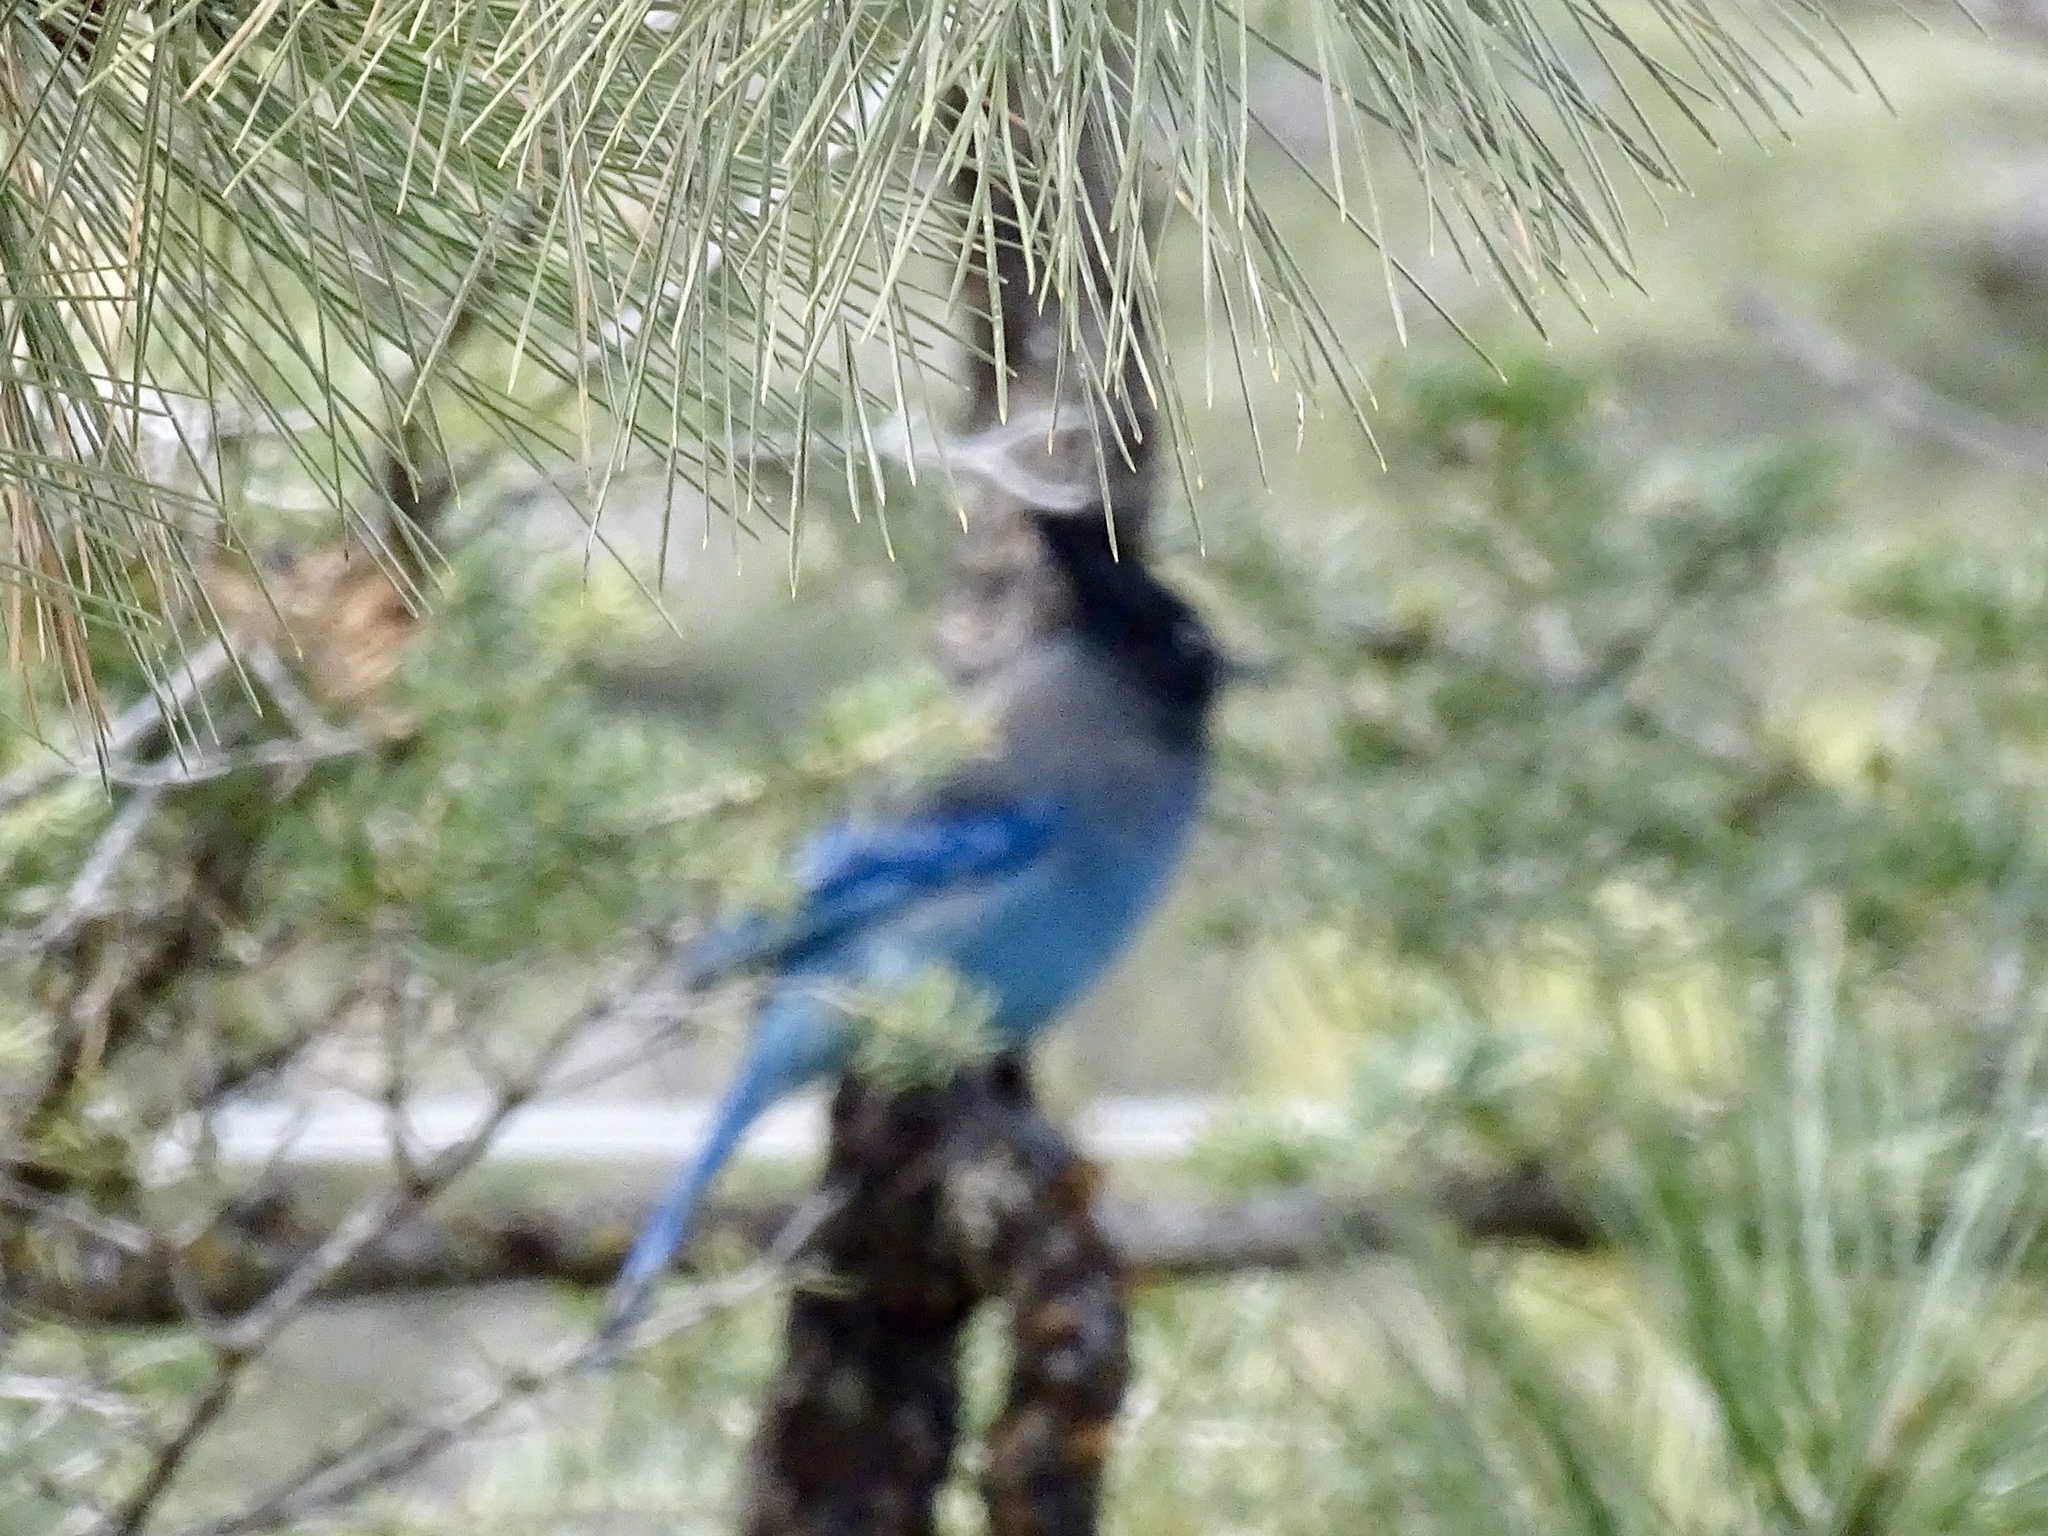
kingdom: Animalia
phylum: Chordata
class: Aves
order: Passeriformes
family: Corvidae
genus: Cyanocitta
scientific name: Cyanocitta stelleri
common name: Steller's jay
